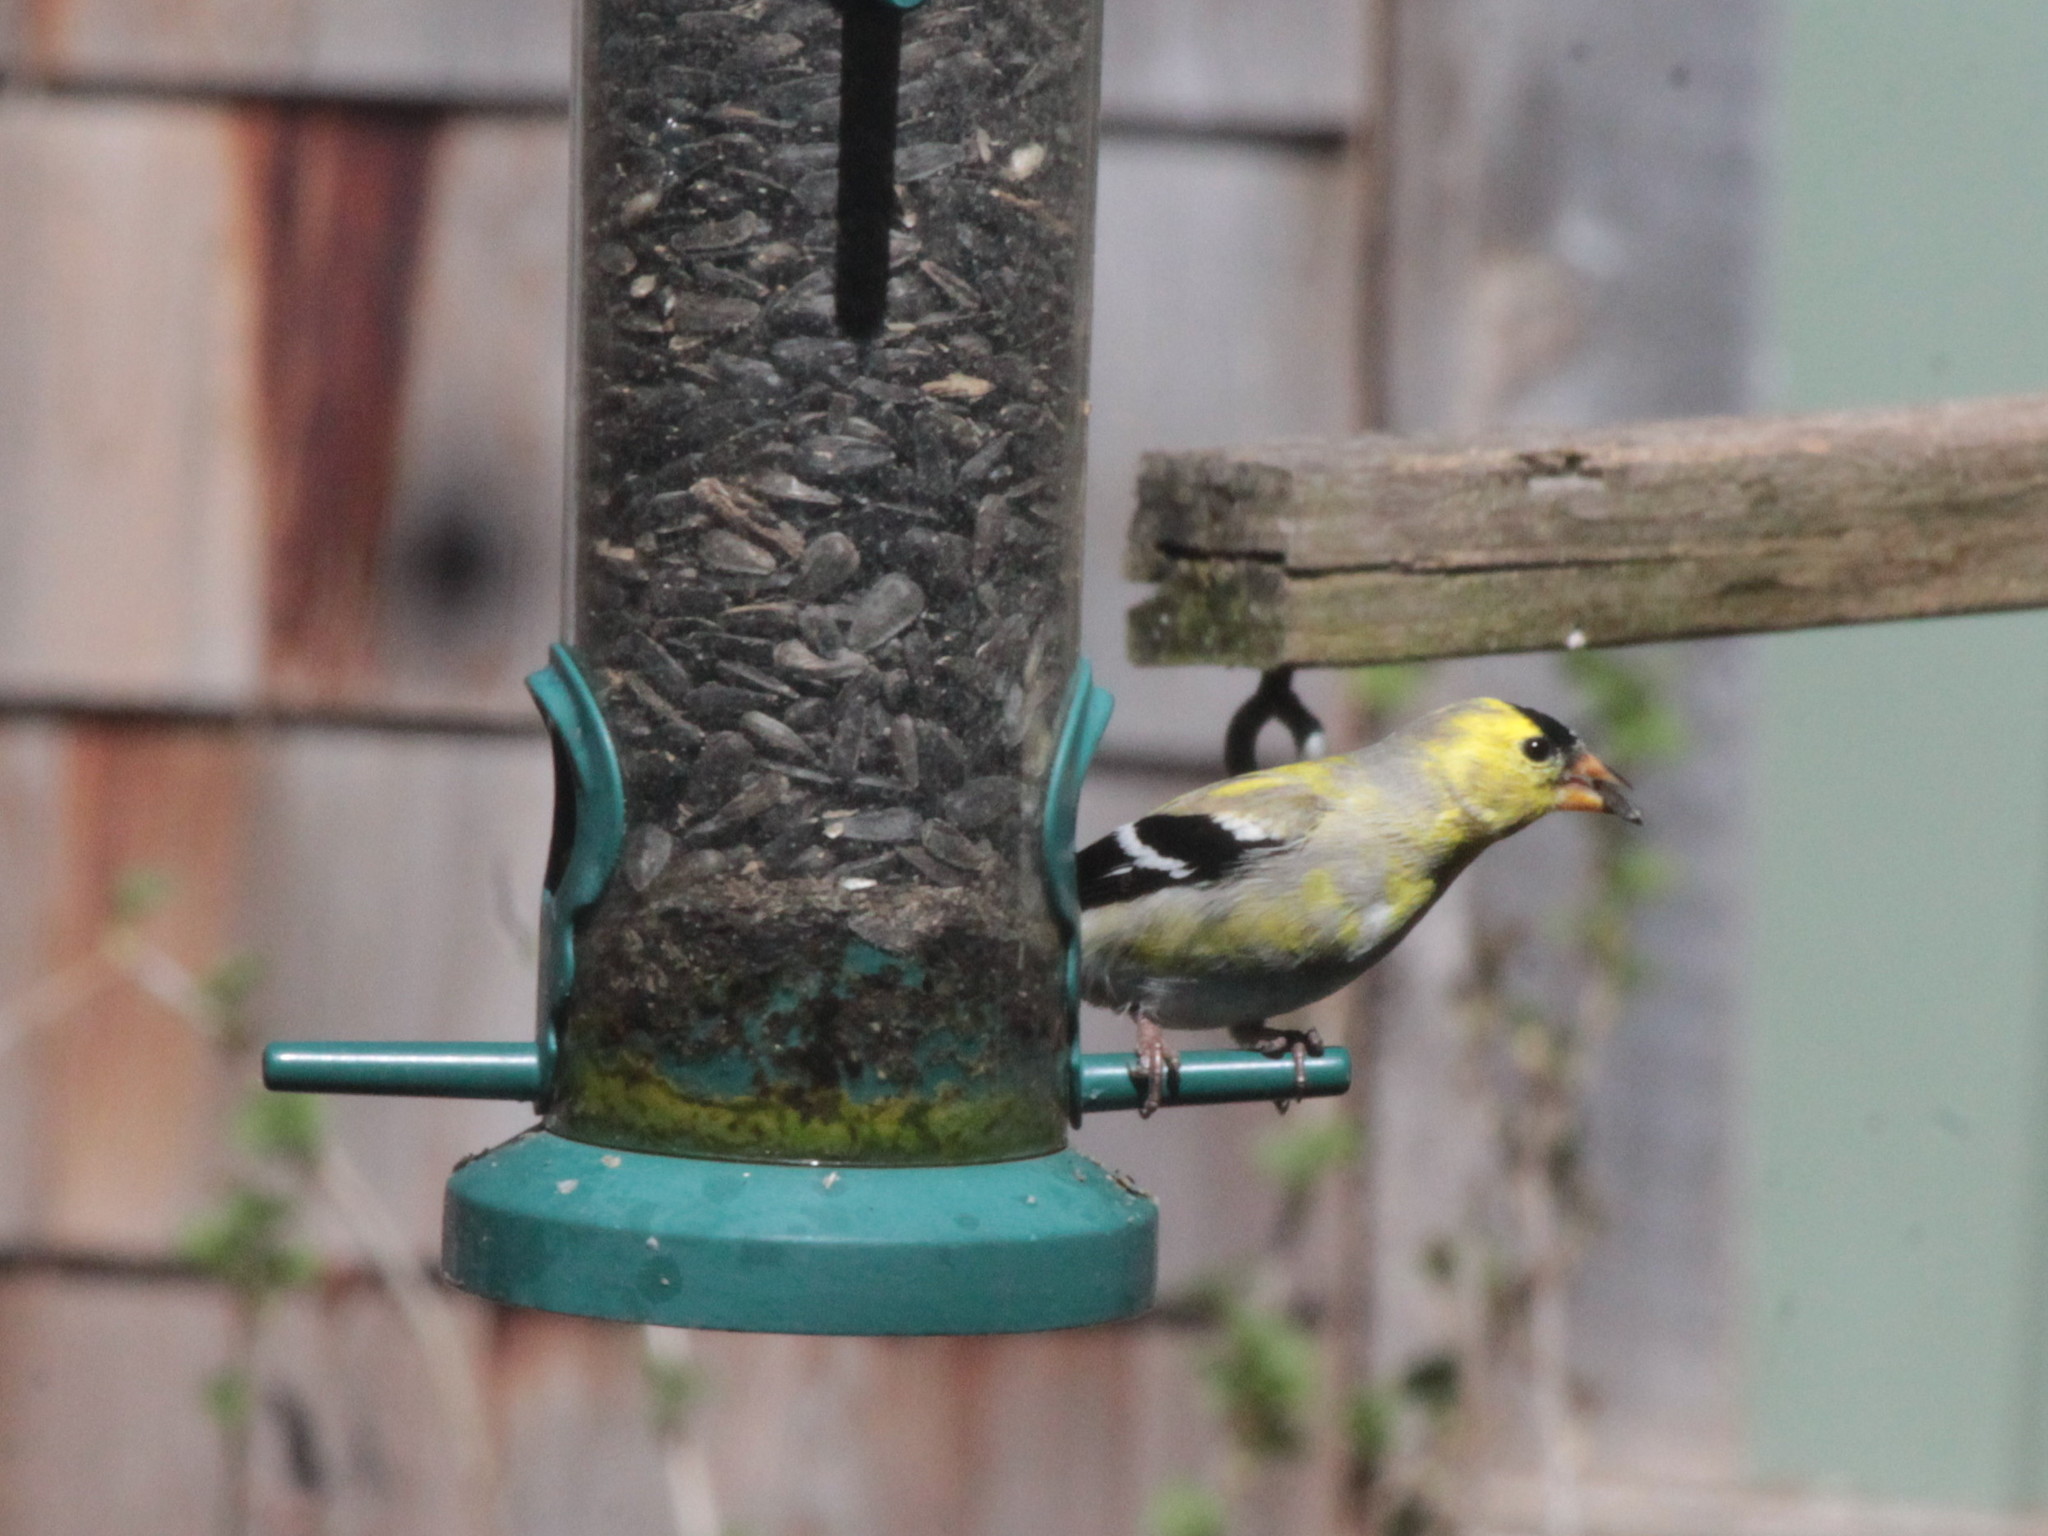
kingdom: Animalia
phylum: Chordata
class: Aves
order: Passeriformes
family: Fringillidae
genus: Spinus
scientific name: Spinus tristis
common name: American goldfinch
